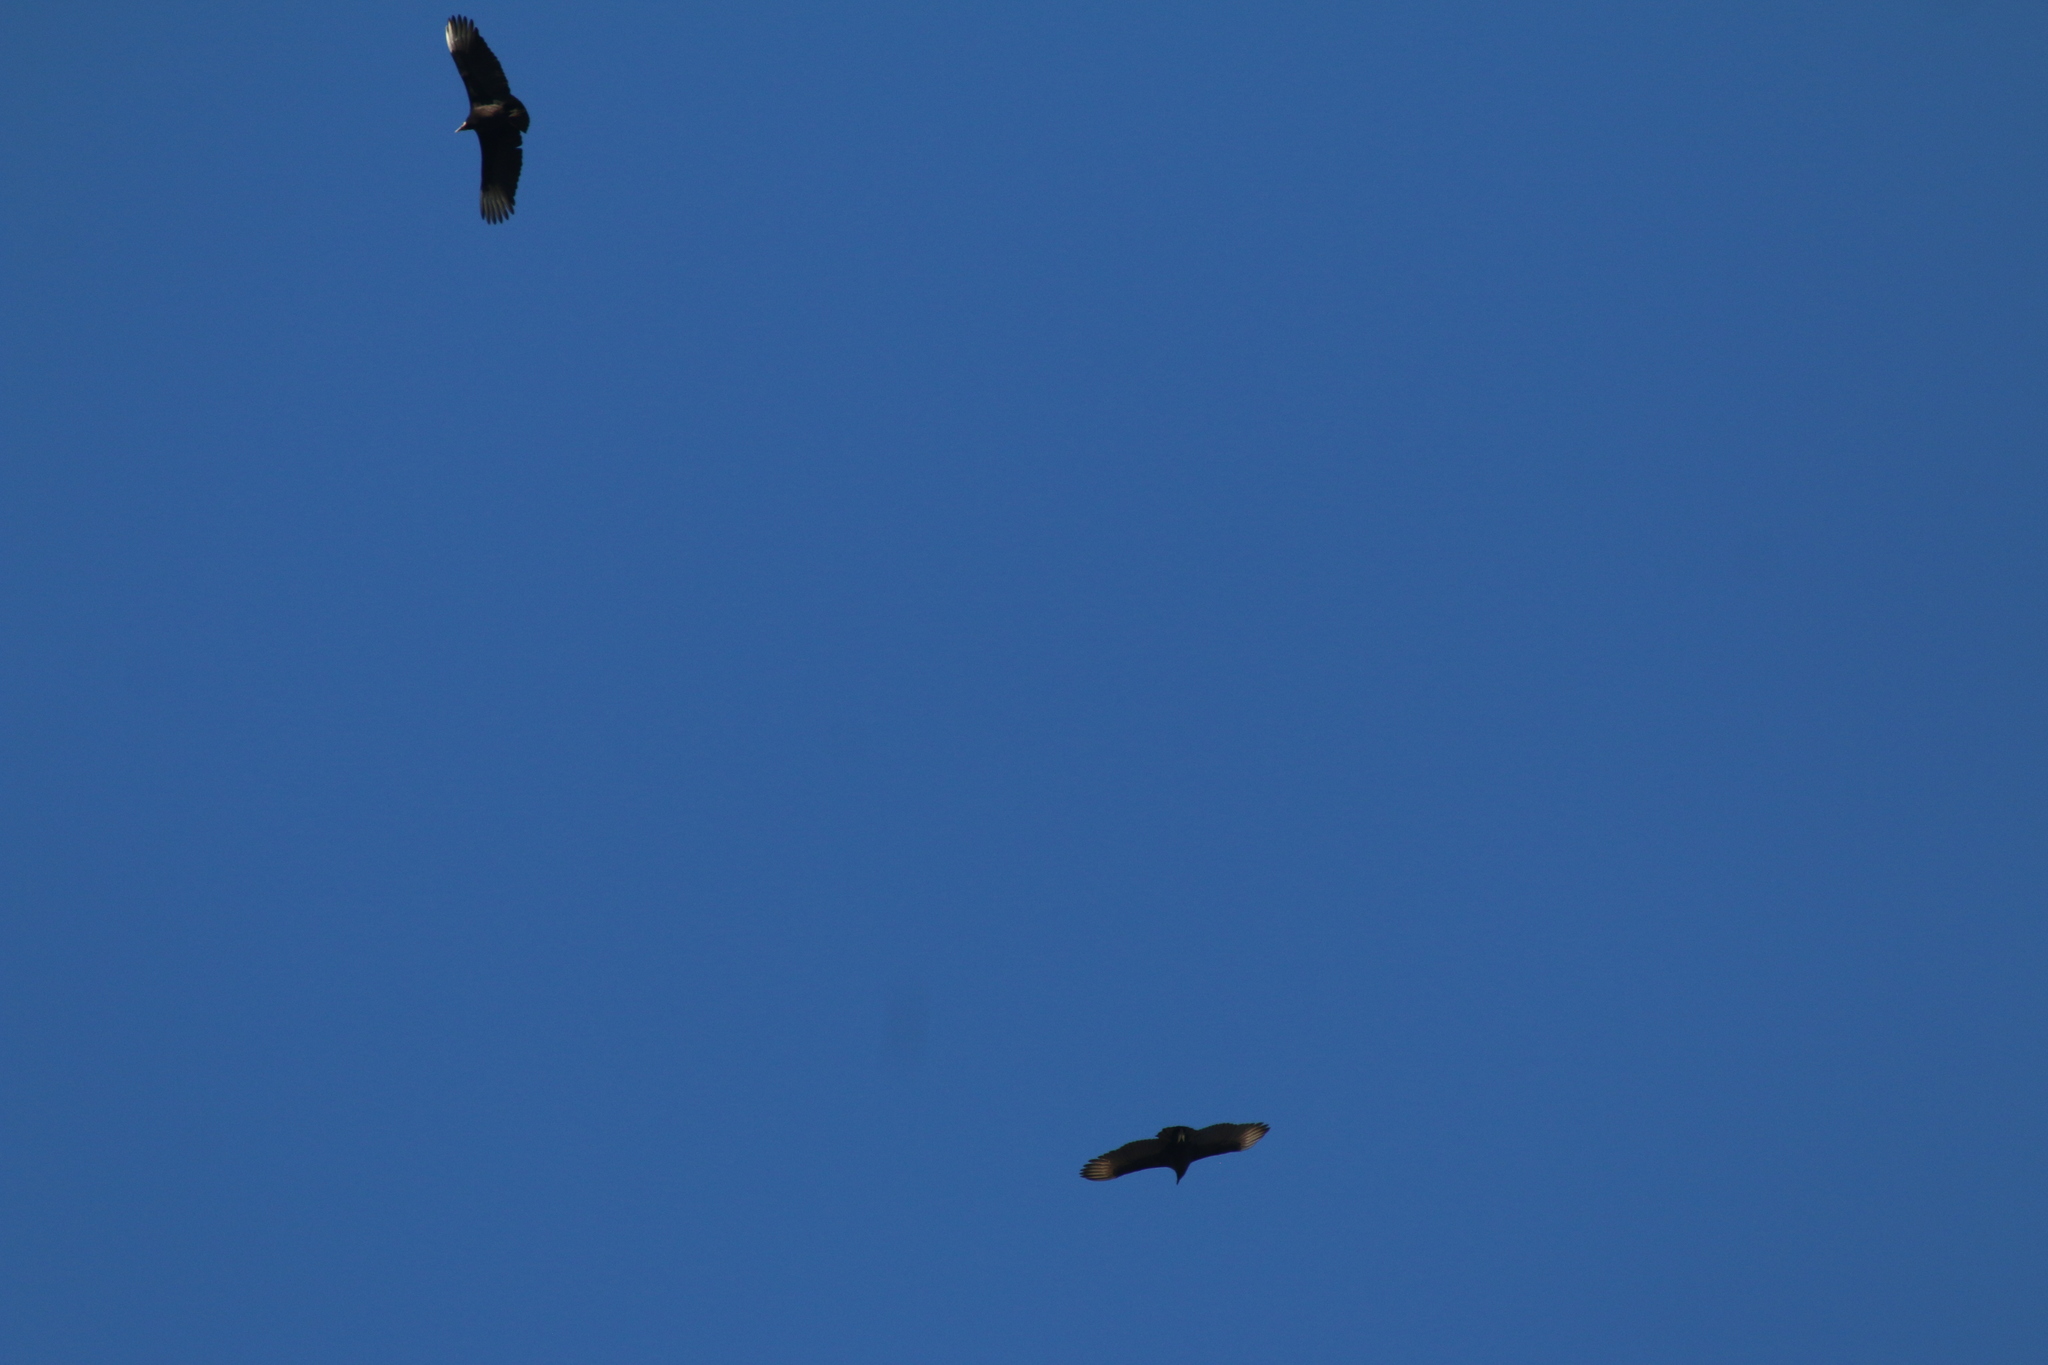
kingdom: Animalia
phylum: Chordata
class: Aves
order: Accipitriformes
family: Cathartidae
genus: Coragyps
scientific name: Coragyps atratus
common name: Black vulture
